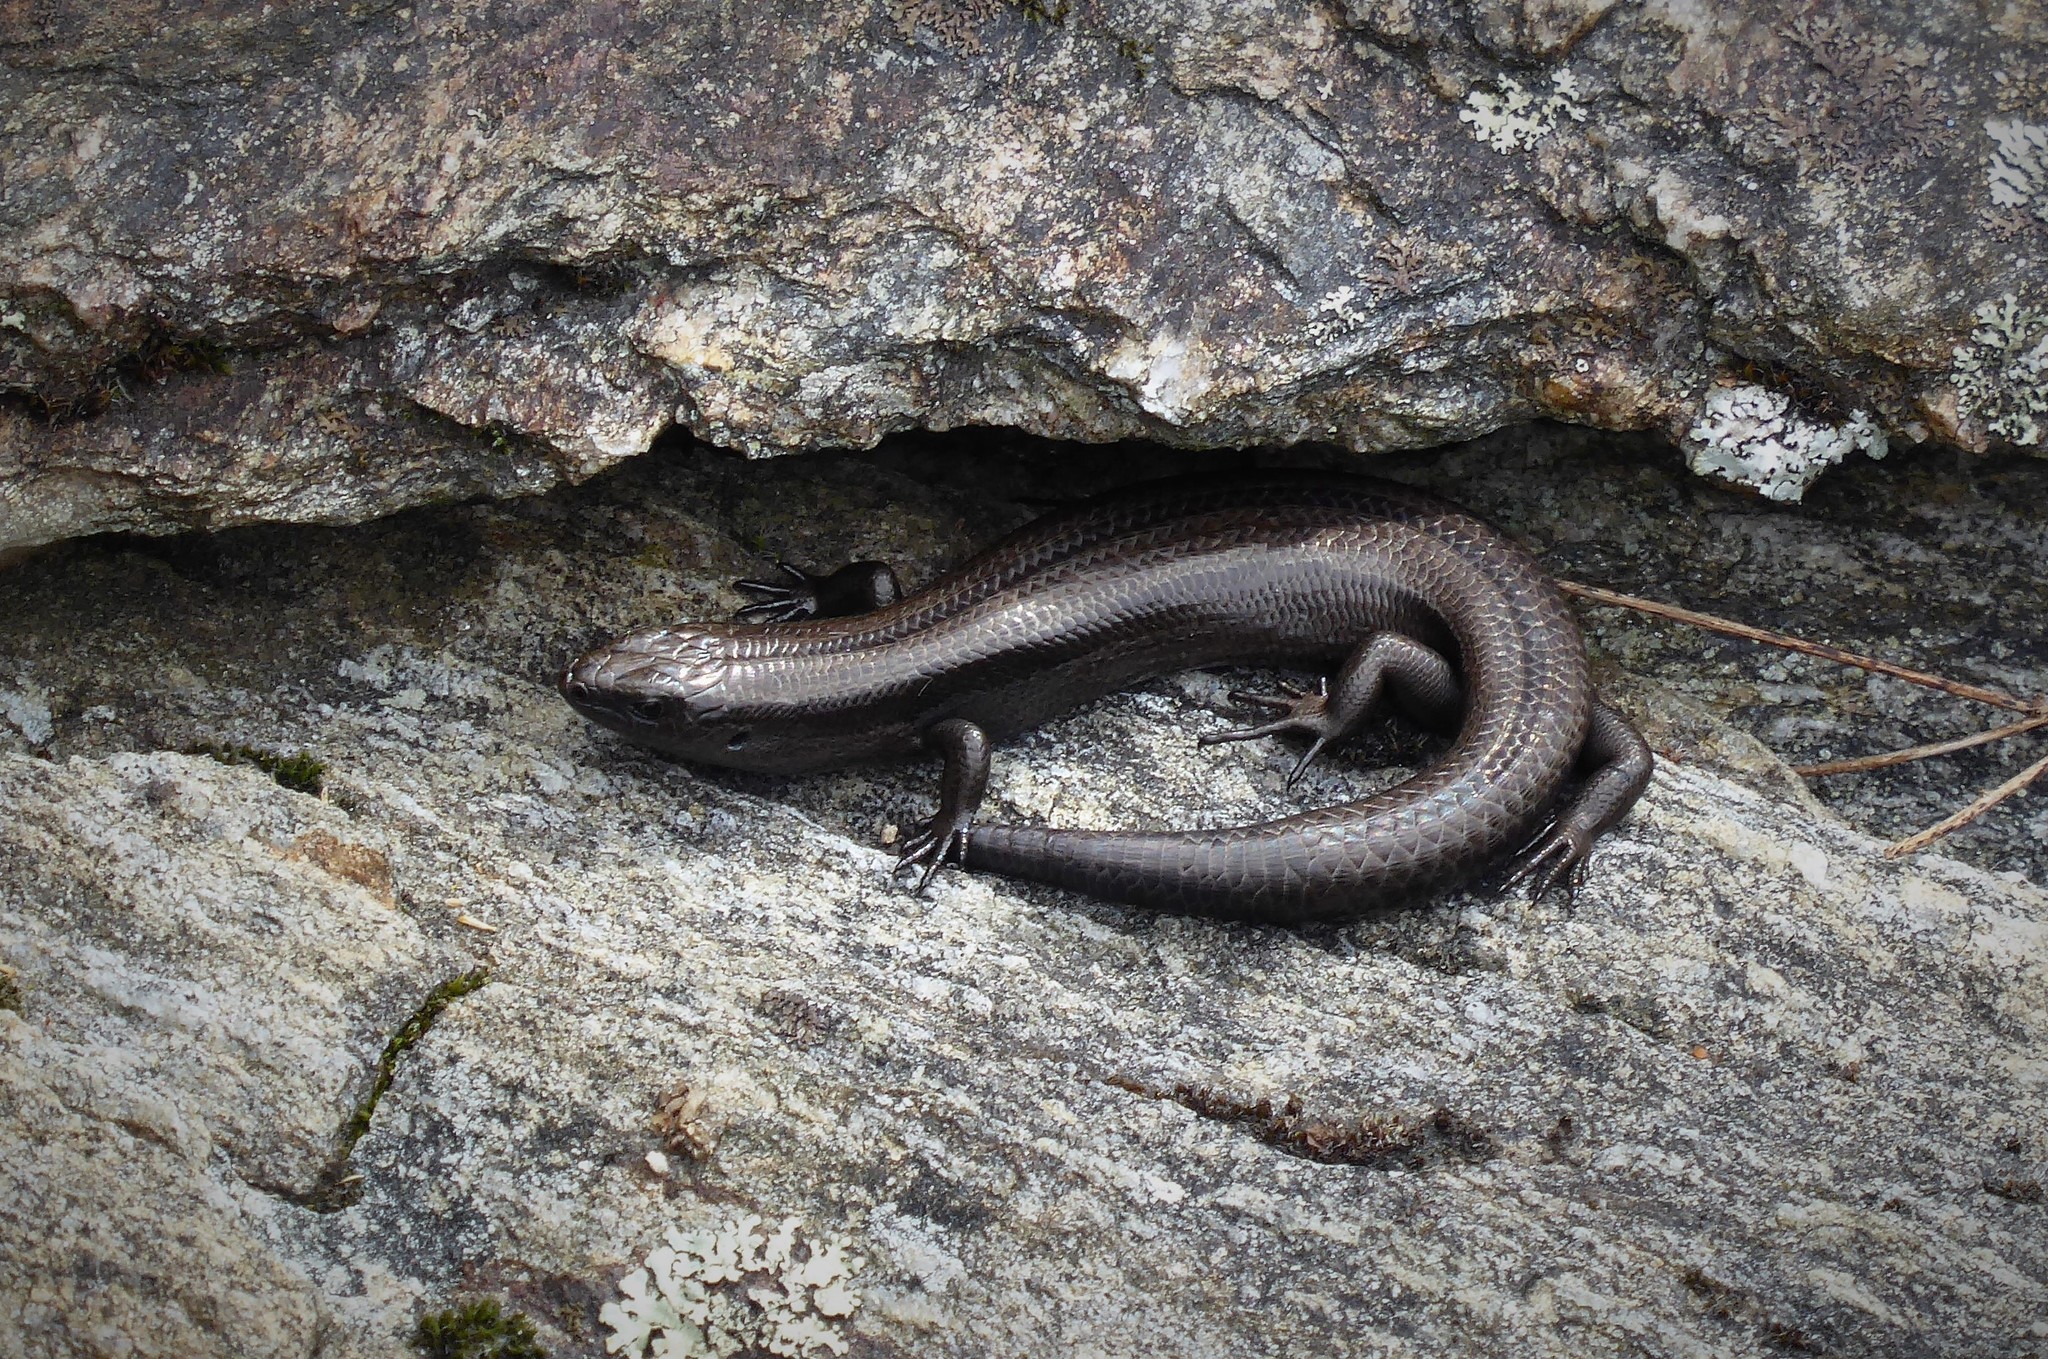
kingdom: Animalia
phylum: Chordata
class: Squamata
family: Scincidae
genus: Oligosoma
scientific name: Oligosoma polychroma
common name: Common new zealand skink
